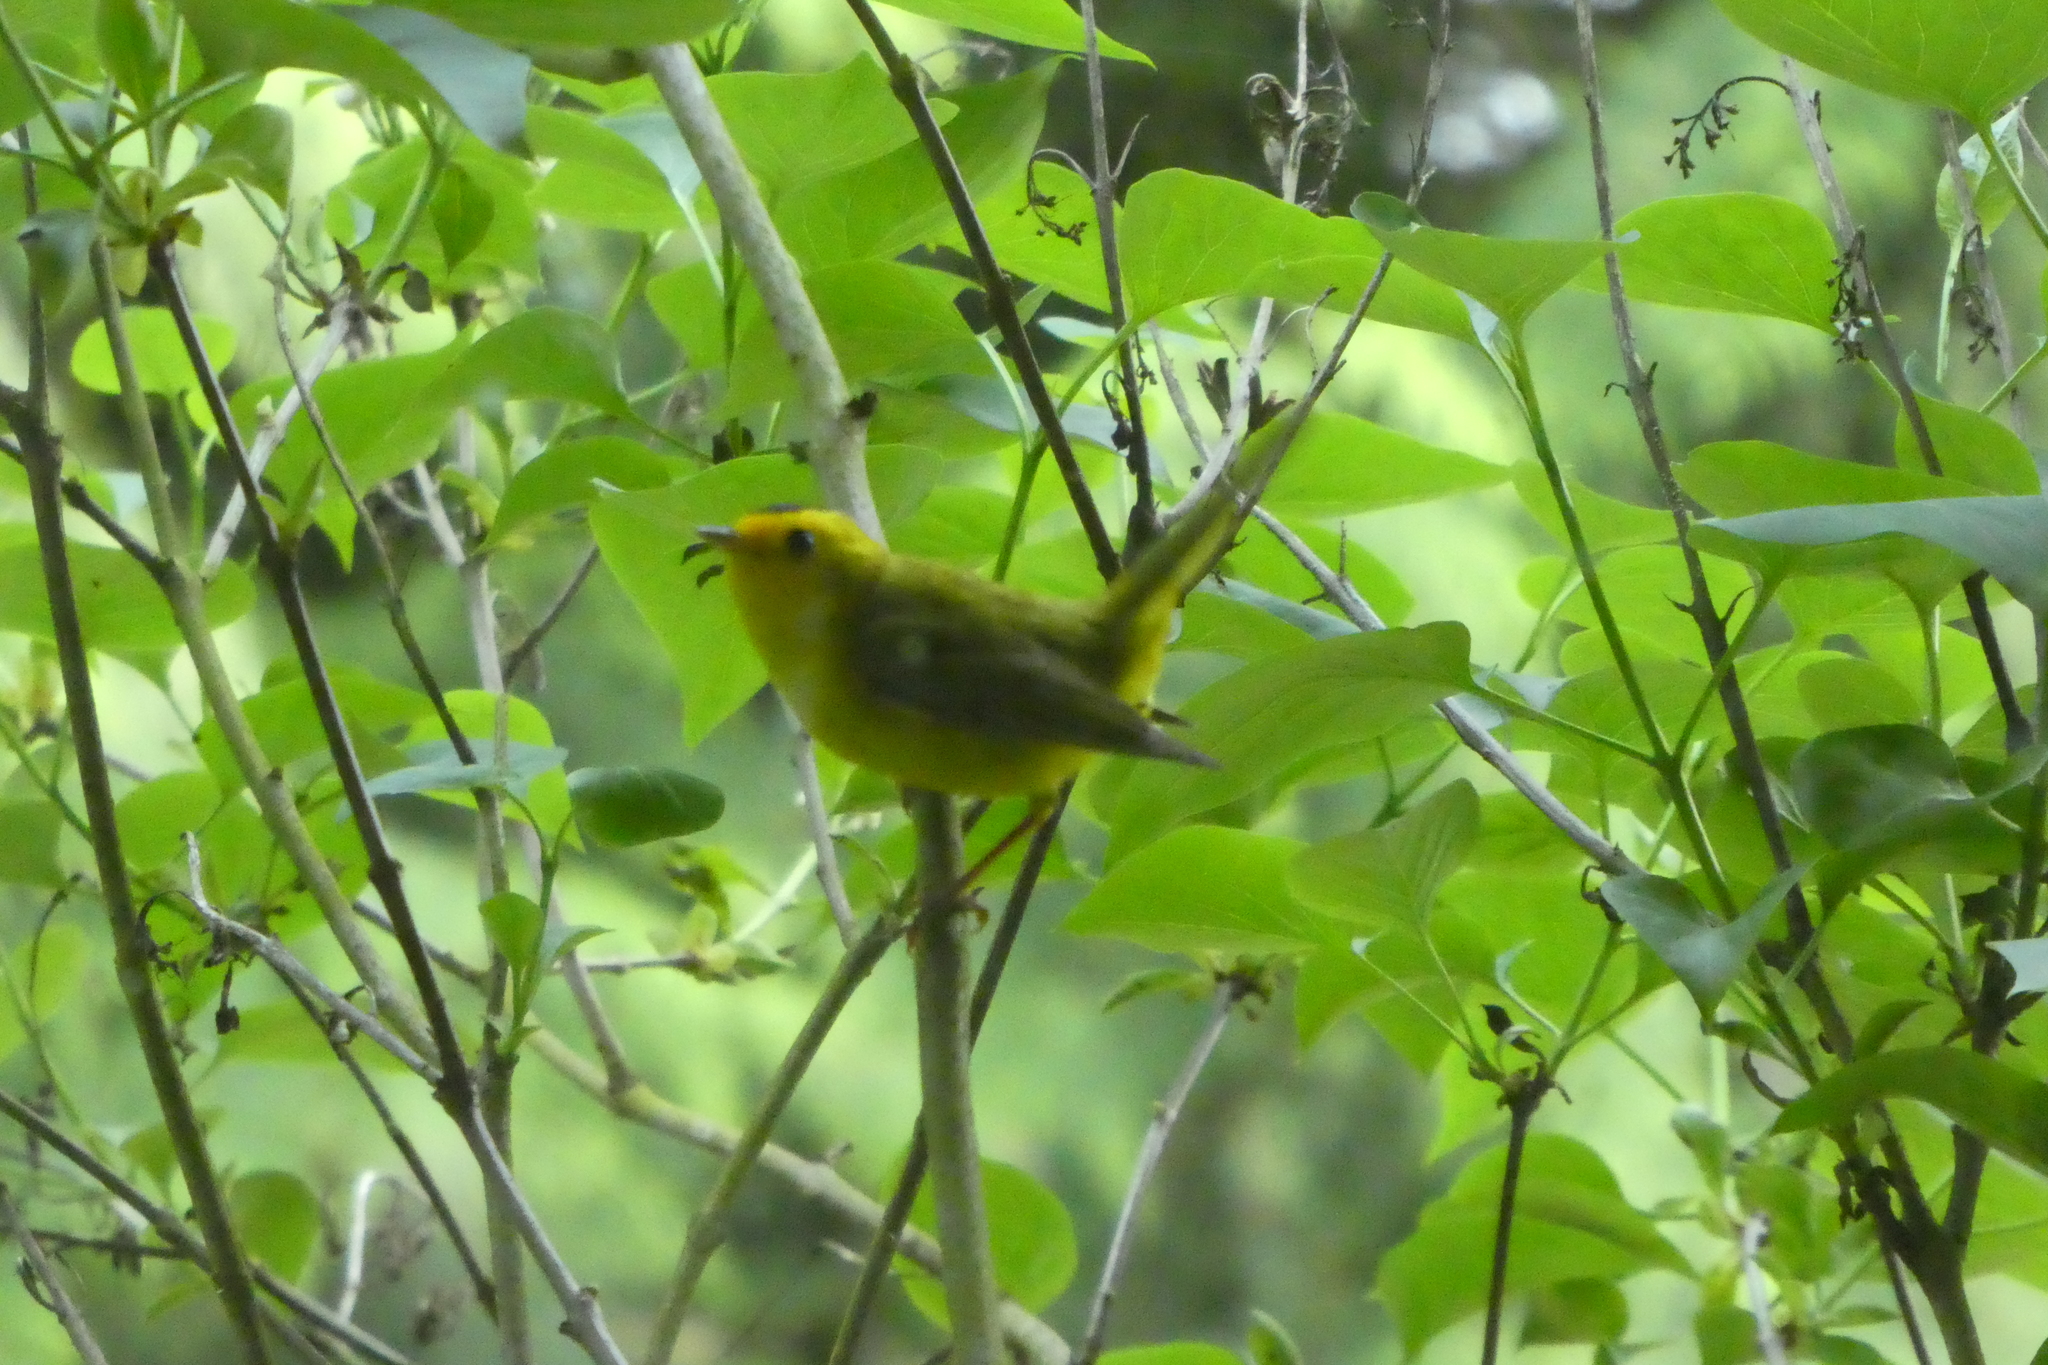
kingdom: Animalia
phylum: Chordata
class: Aves
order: Passeriformes
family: Parulidae
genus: Cardellina
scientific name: Cardellina pusilla
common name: Wilson's warbler
